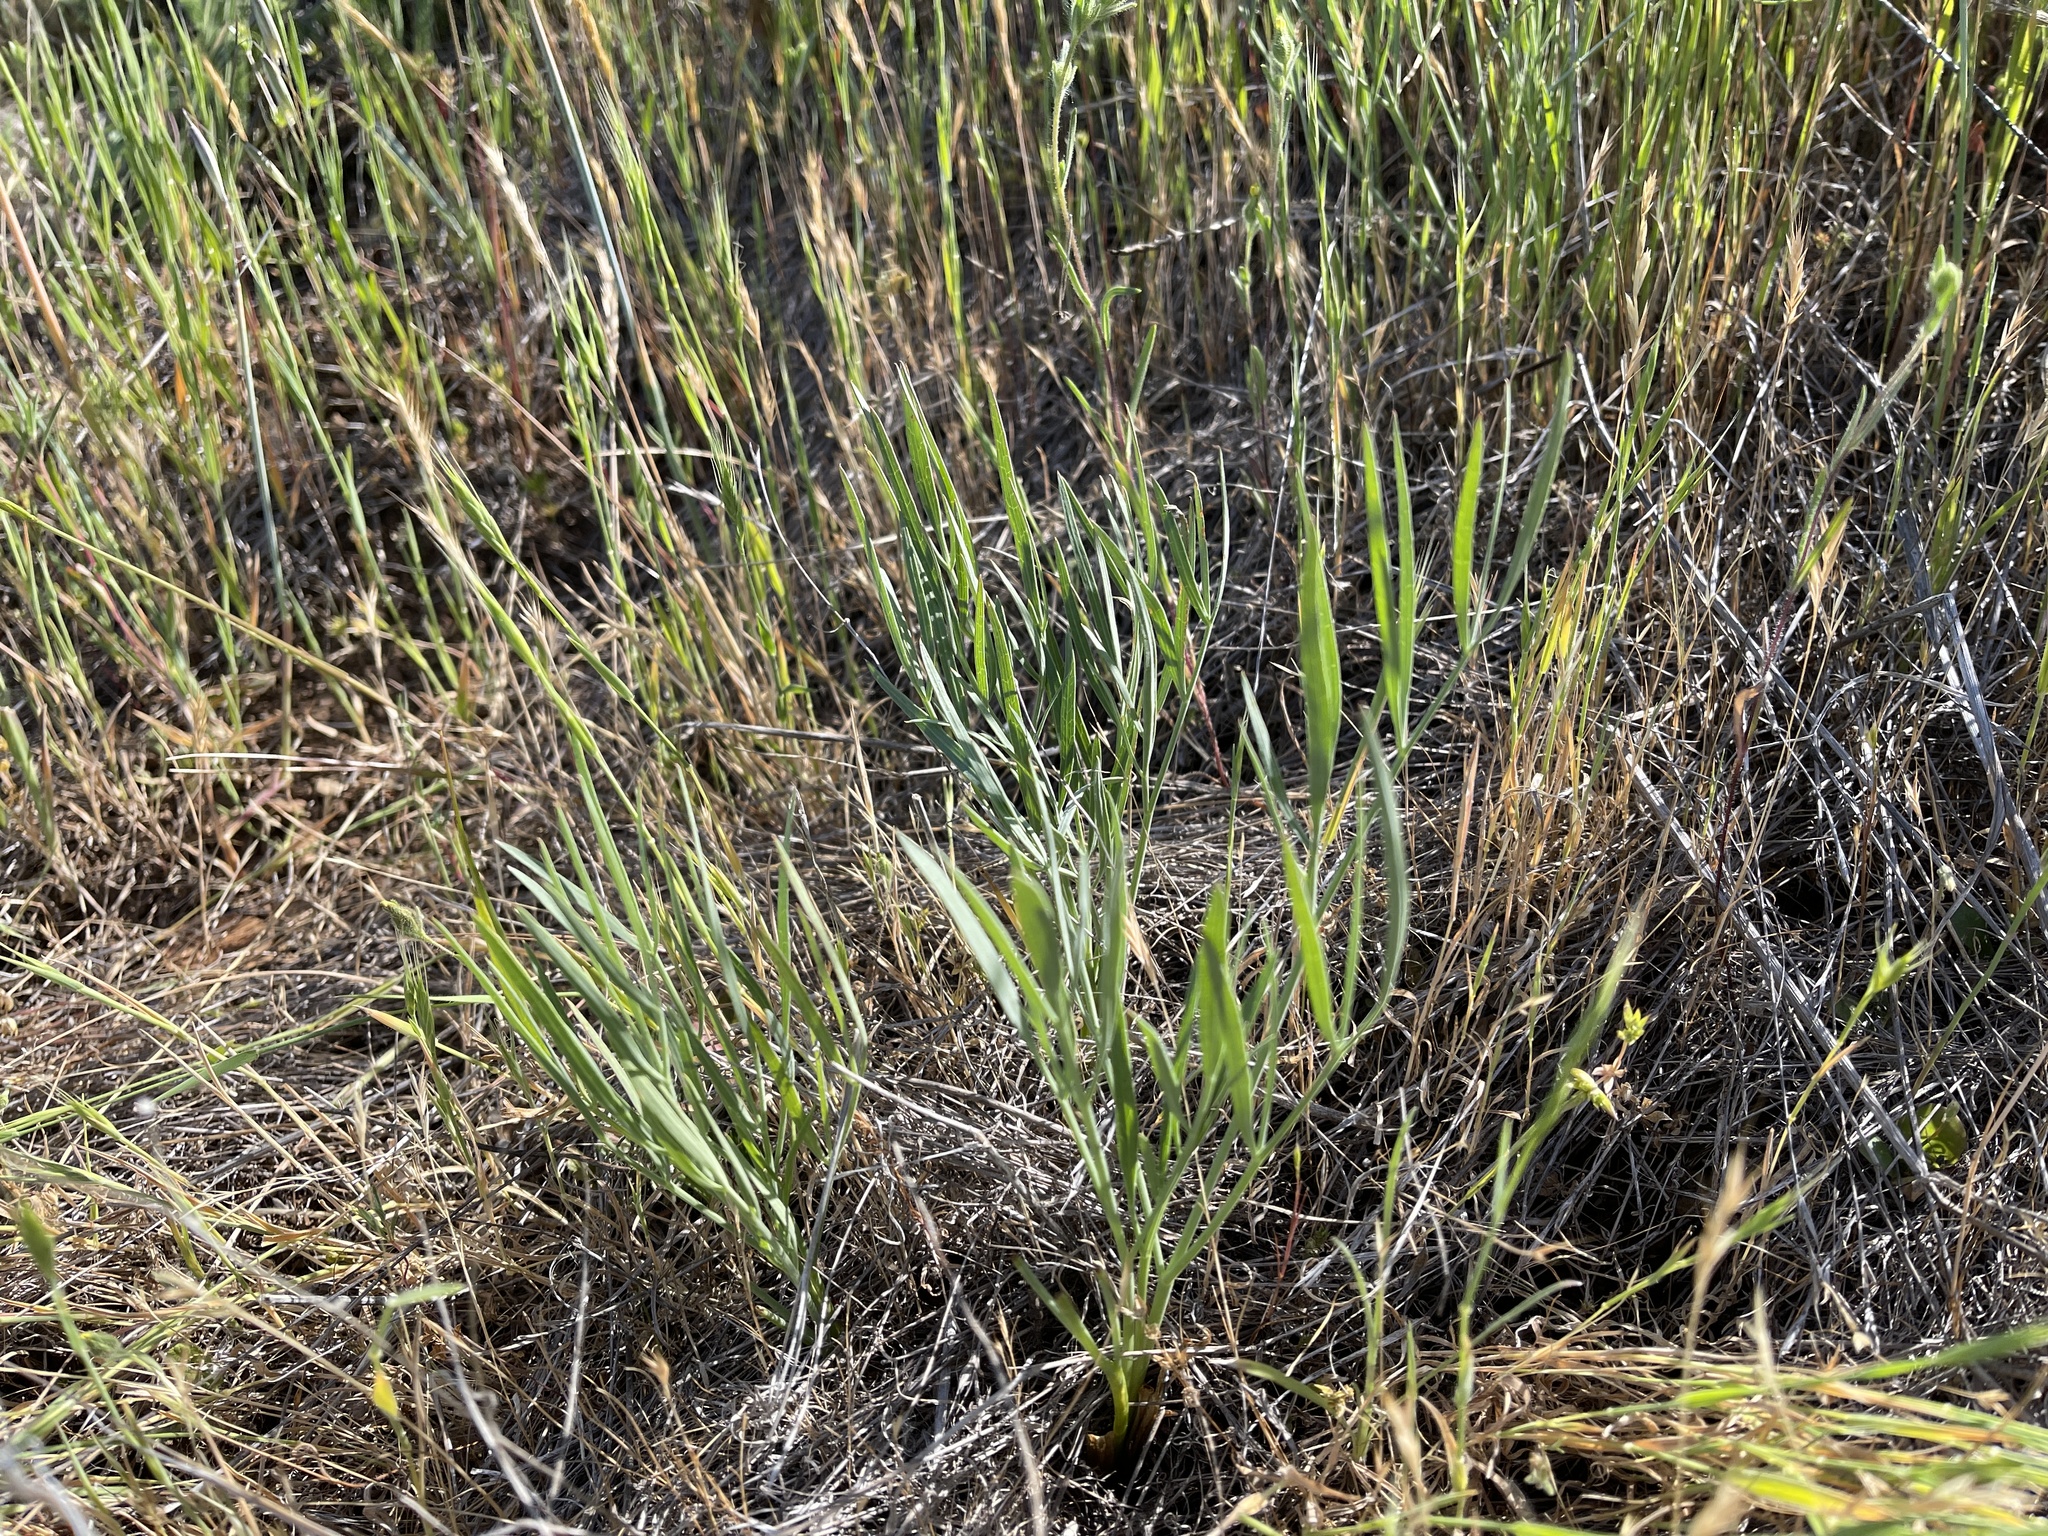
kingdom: Plantae
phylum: Tracheophyta
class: Magnoliopsida
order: Apiales
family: Apiaceae
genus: Perideridia
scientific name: Perideridia kelloggii
